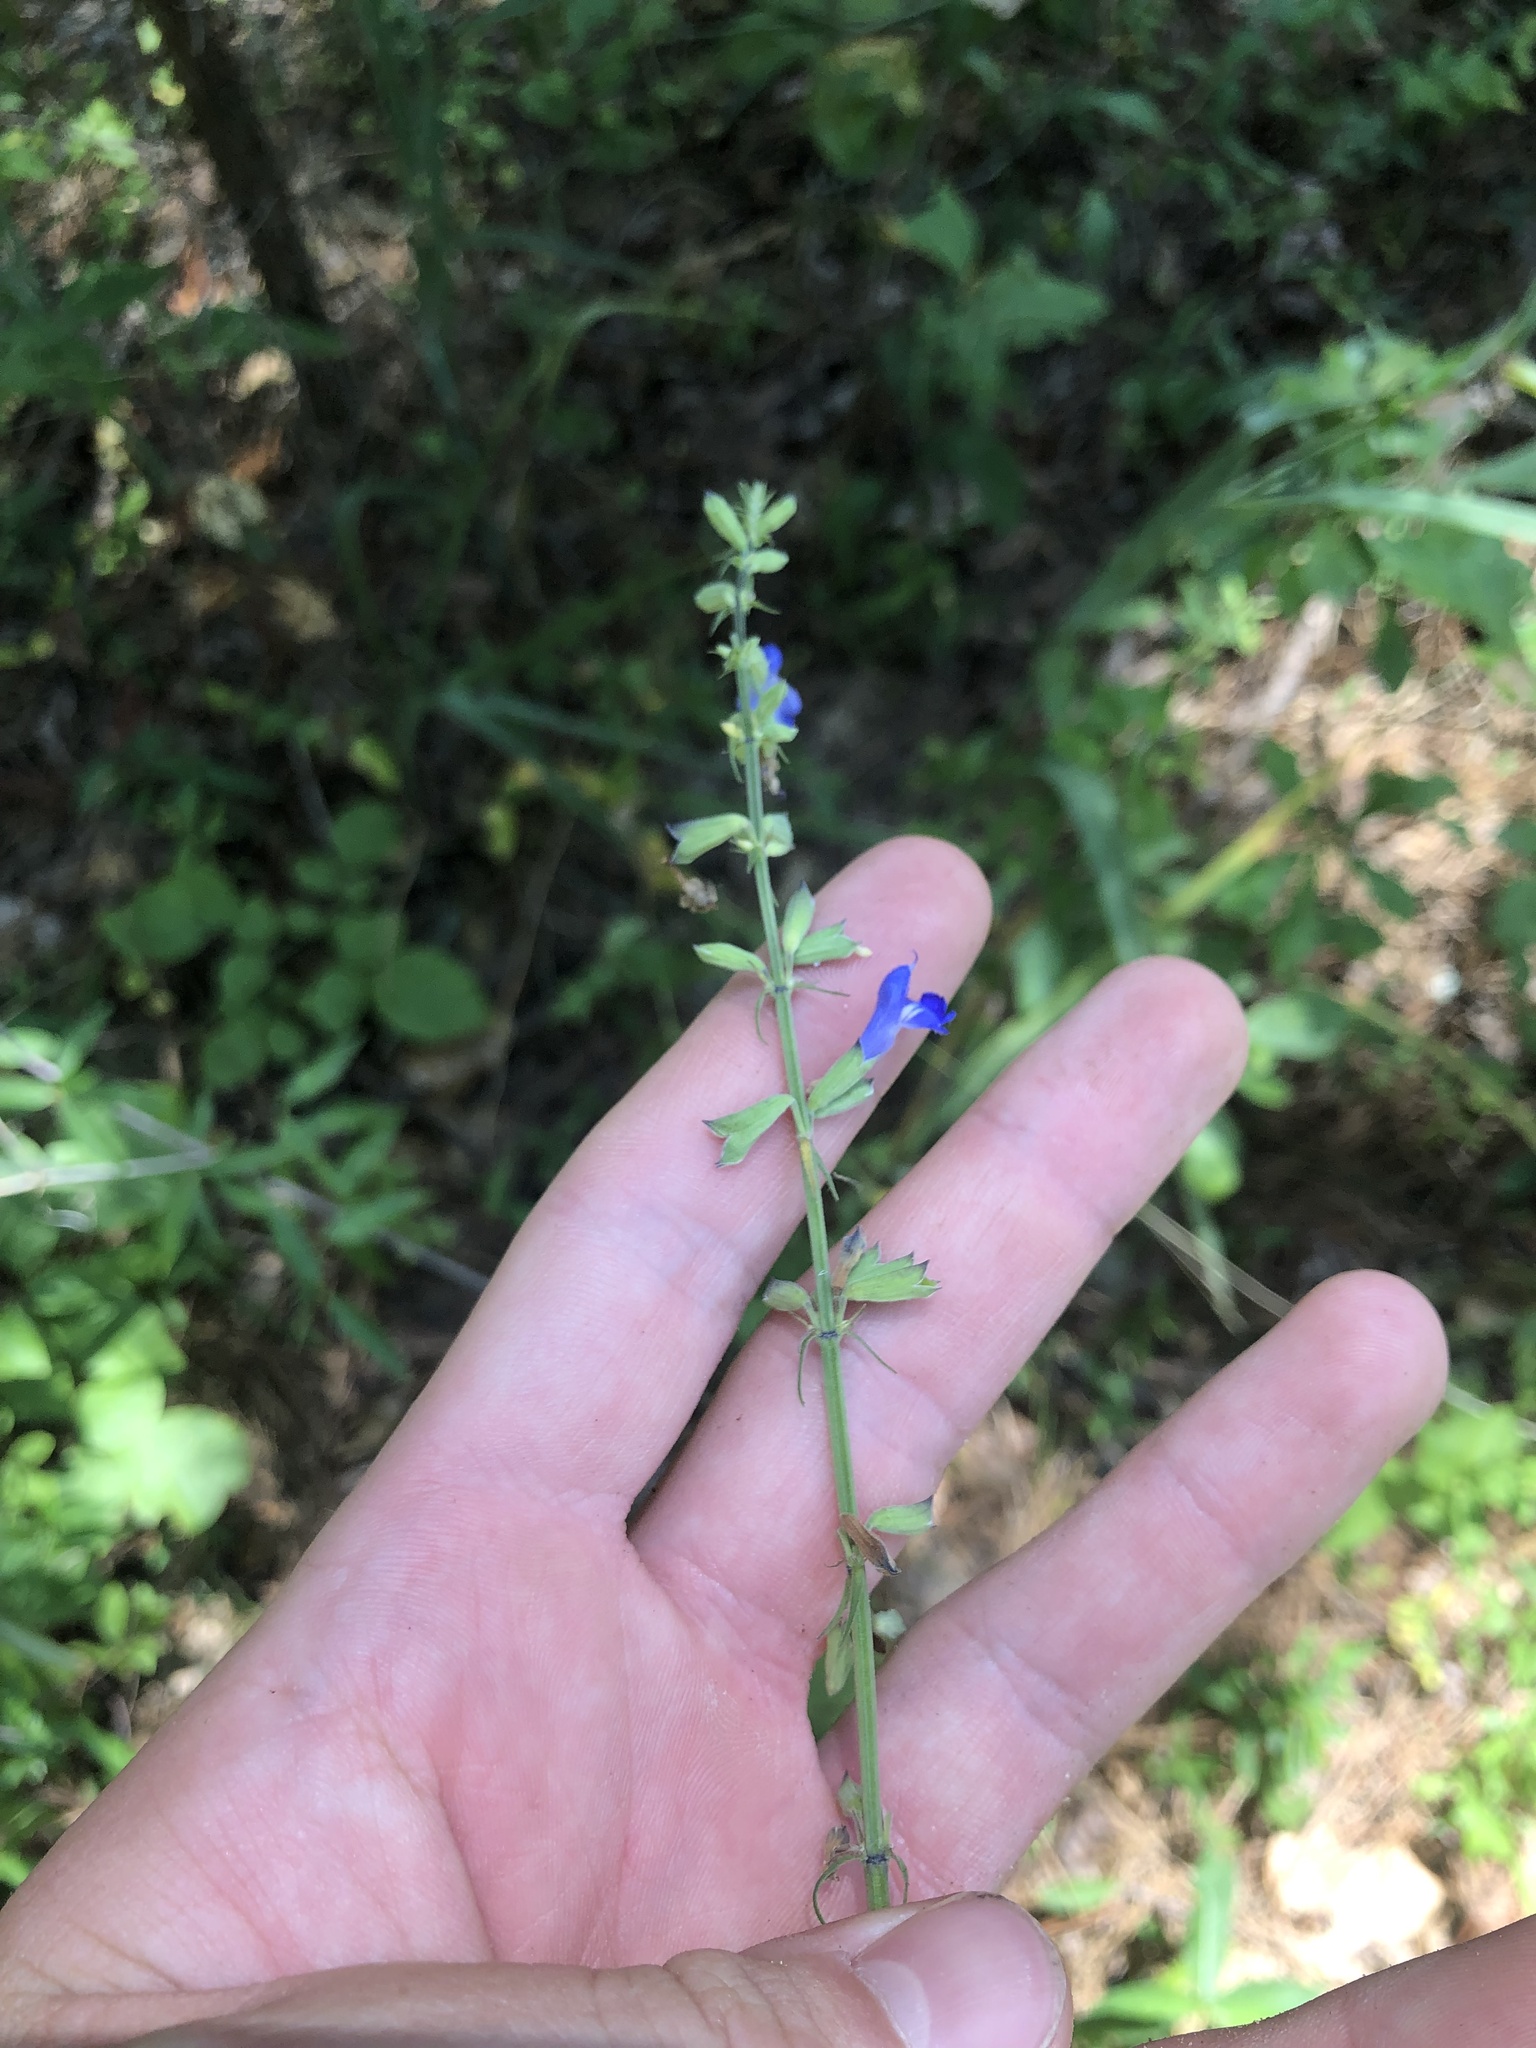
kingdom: Plantae
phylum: Tracheophyta
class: Magnoliopsida
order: Lamiales
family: Lamiaceae
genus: Salvia
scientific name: Salvia azurea
